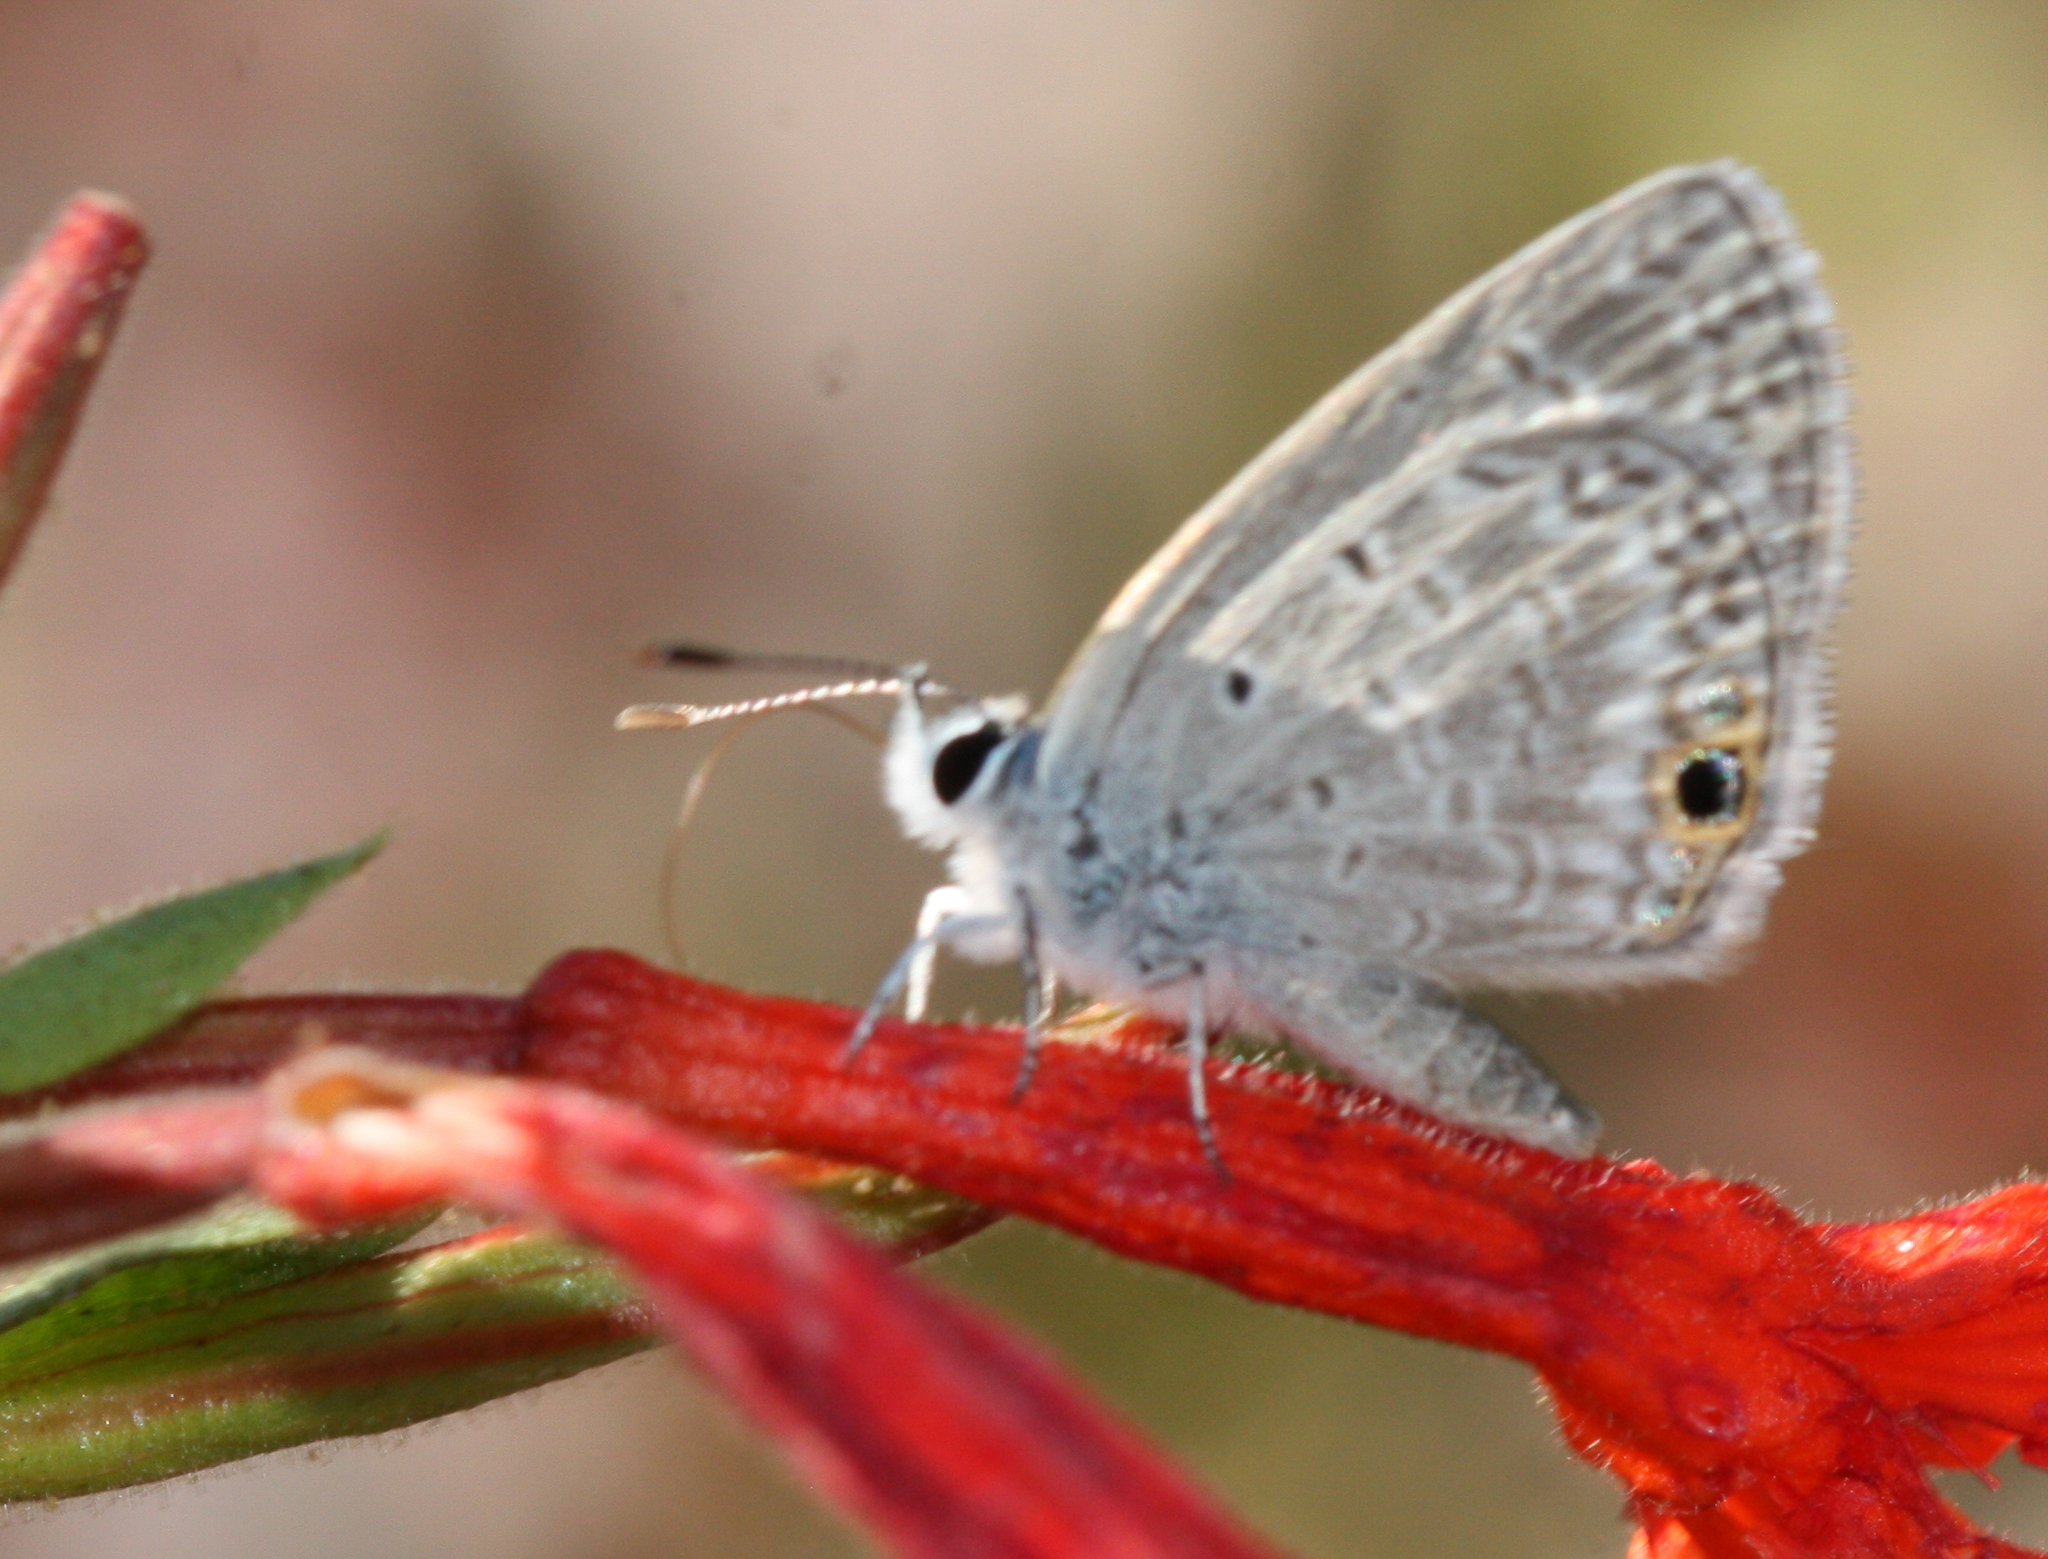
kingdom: Animalia
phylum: Arthropoda
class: Insecta
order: Lepidoptera
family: Lycaenidae
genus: Hemiargus
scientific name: Hemiargus ceraunus
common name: Ceraunus blue
